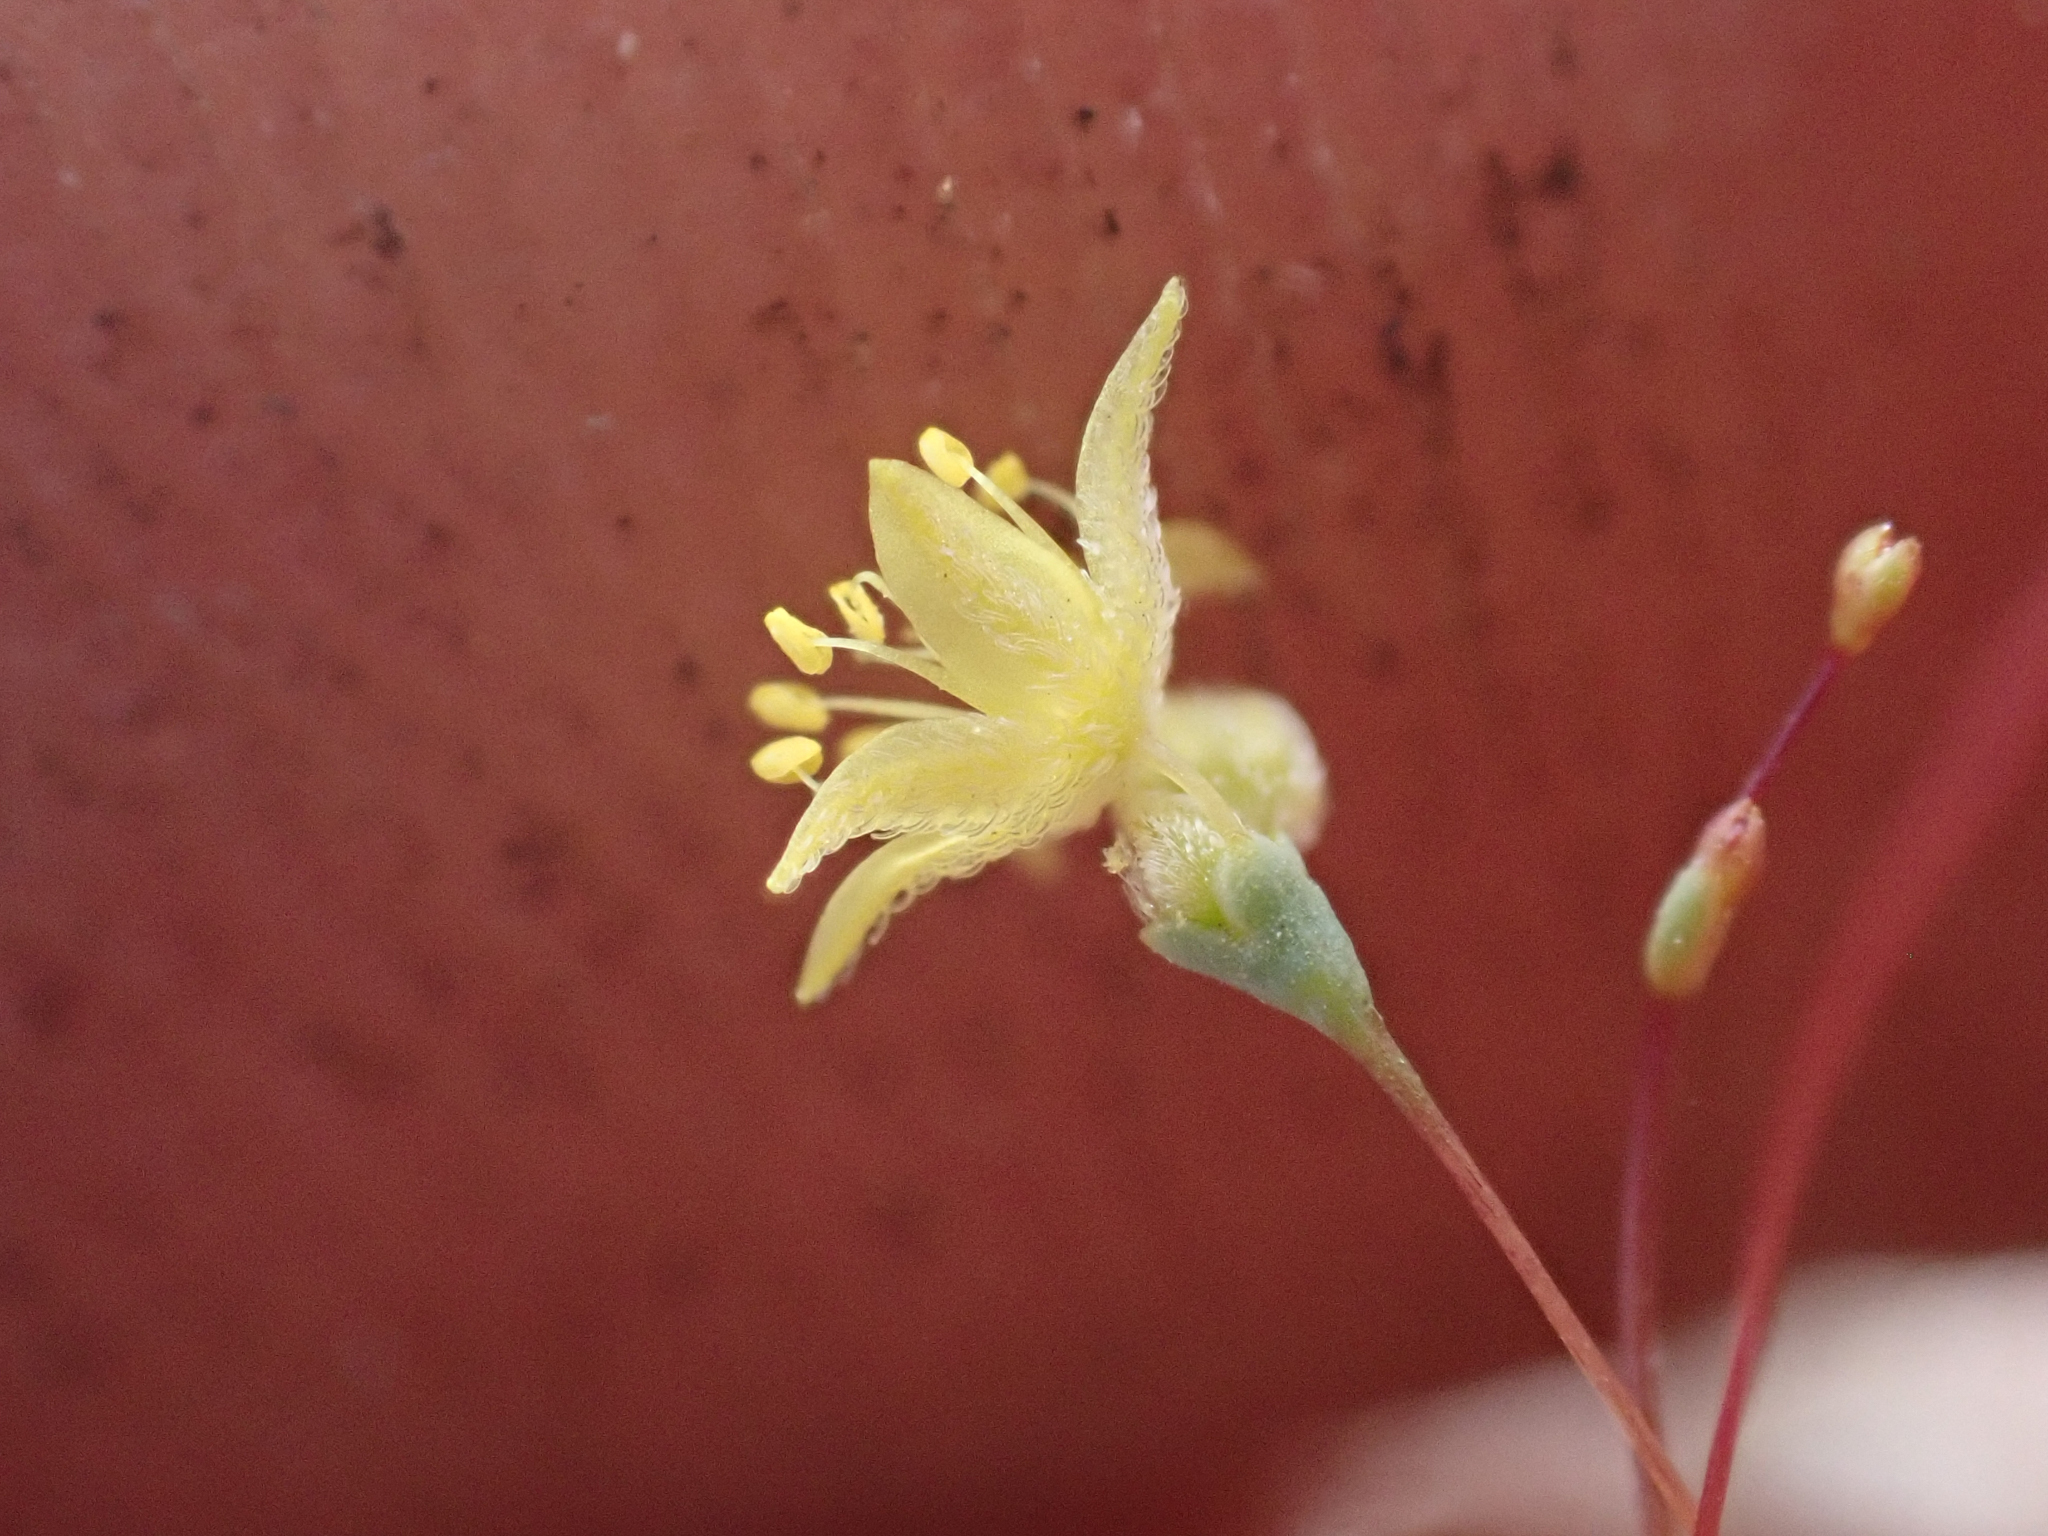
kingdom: Plantae
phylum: Tracheophyta
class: Magnoliopsida
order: Caryophyllales
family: Polygonaceae
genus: Eriogonum
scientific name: Eriogonum trichopes
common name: Little desert trumpet
